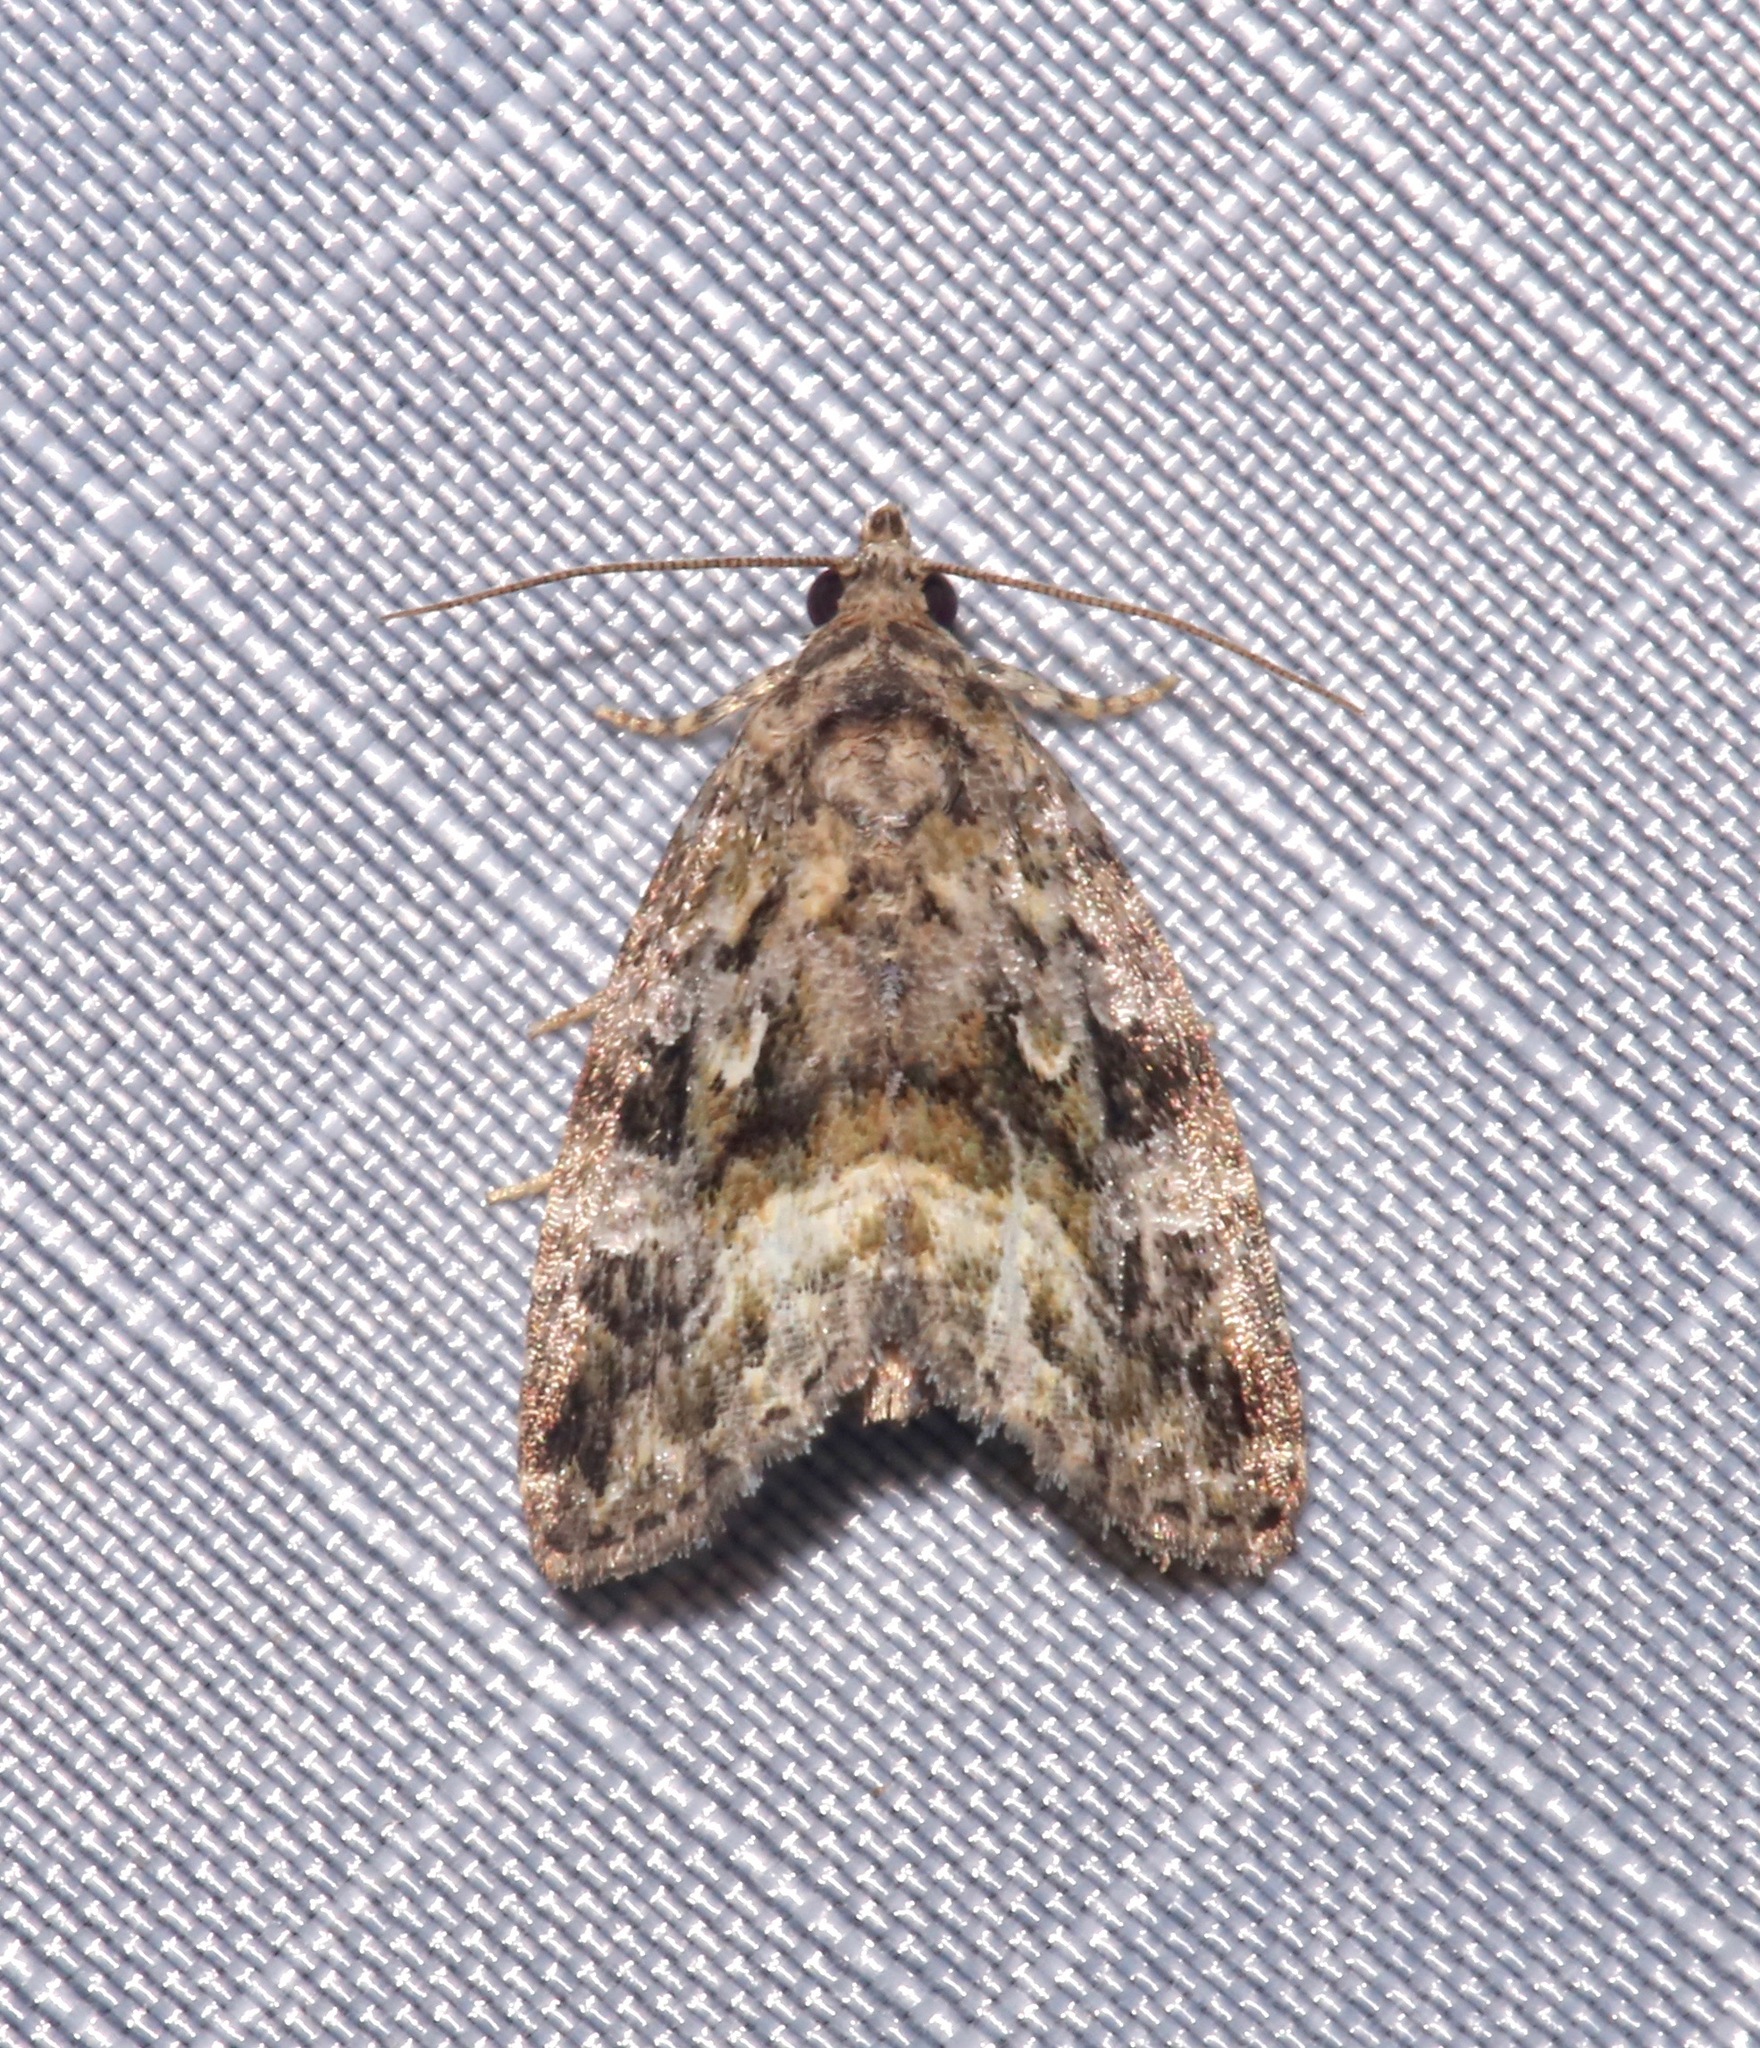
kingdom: Animalia
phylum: Arthropoda
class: Insecta
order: Lepidoptera
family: Noctuidae
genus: Protodeltote
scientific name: Protodeltote muscosula
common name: Large mossy glyph
